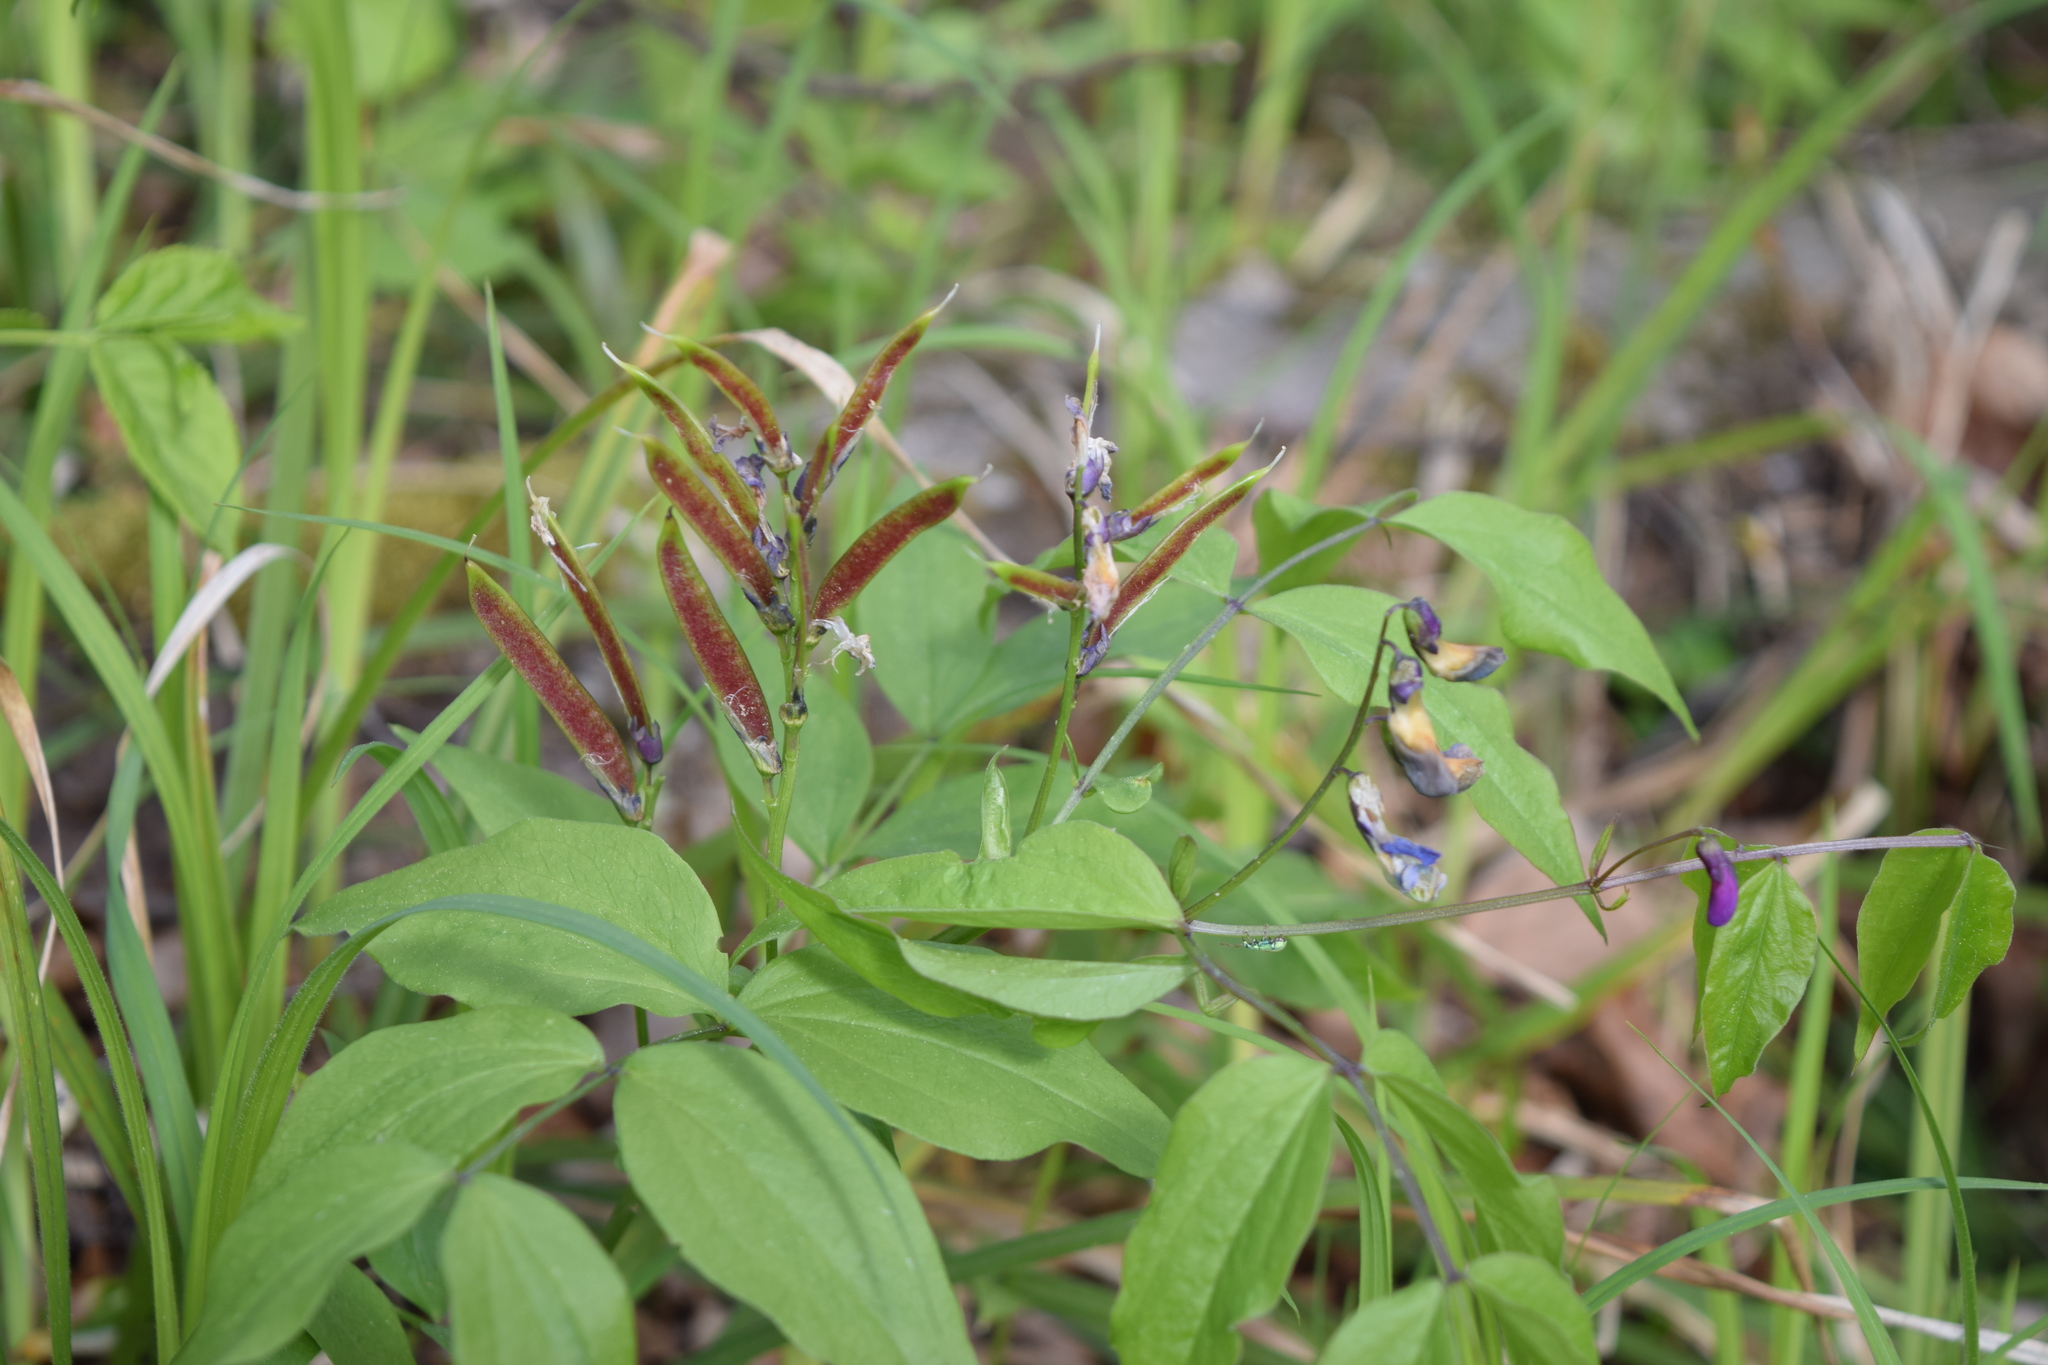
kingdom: Plantae
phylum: Tracheophyta
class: Magnoliopsida
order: Fabales
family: Fabaceae
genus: Lathyrus
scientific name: Lathyrus vernus
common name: Spring pea
